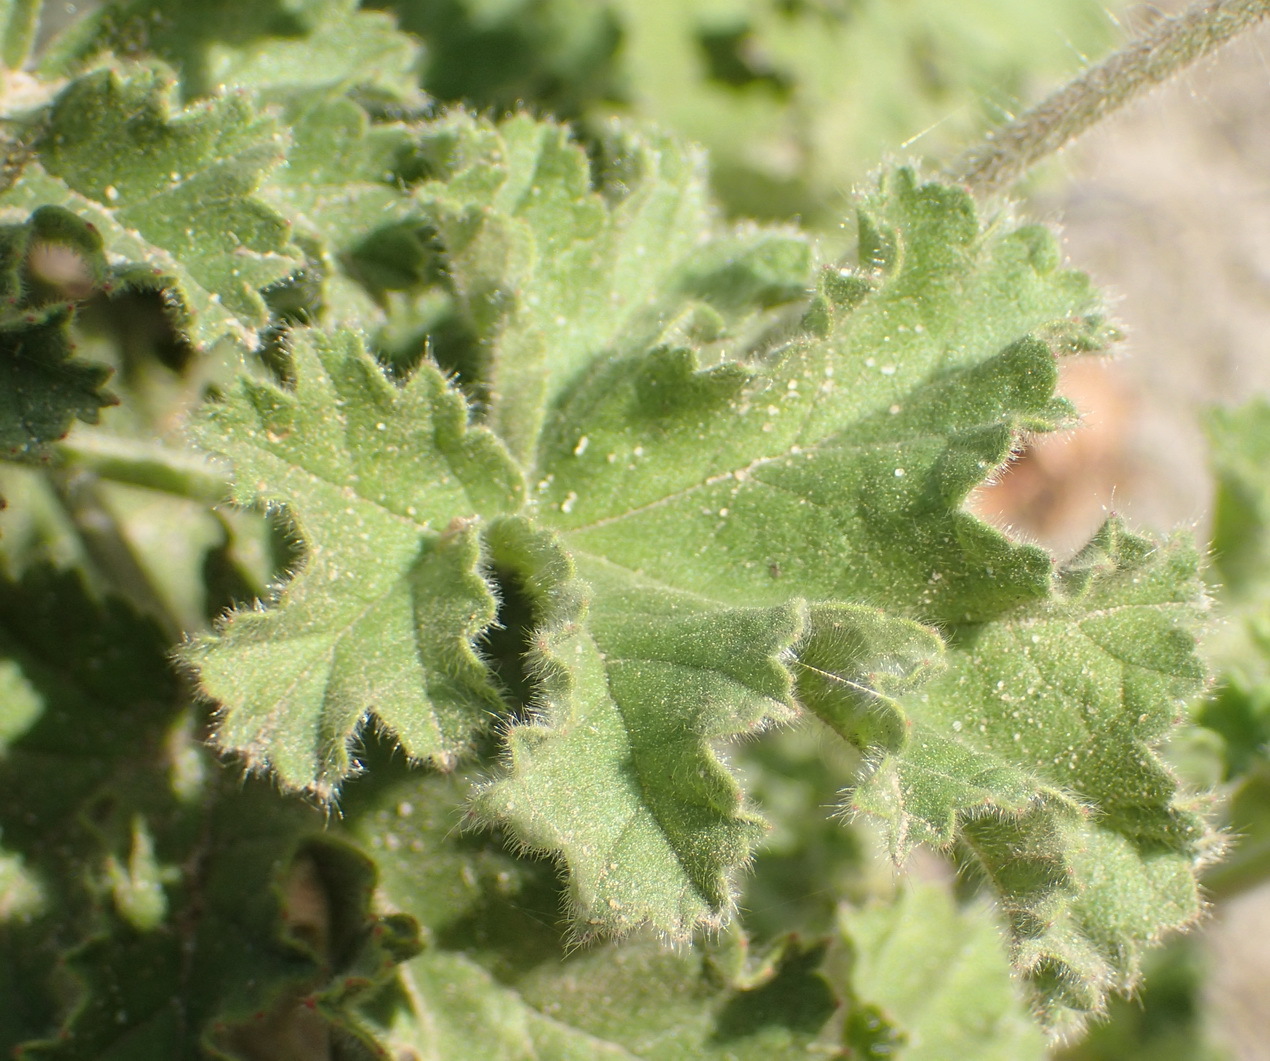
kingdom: Plantae
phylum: Tracheophyta
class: Magnoliopsida
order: Geraniales
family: Geraniaceae
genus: Pelargonium
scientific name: Pelargonium capitatum
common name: Rose scented geranium
